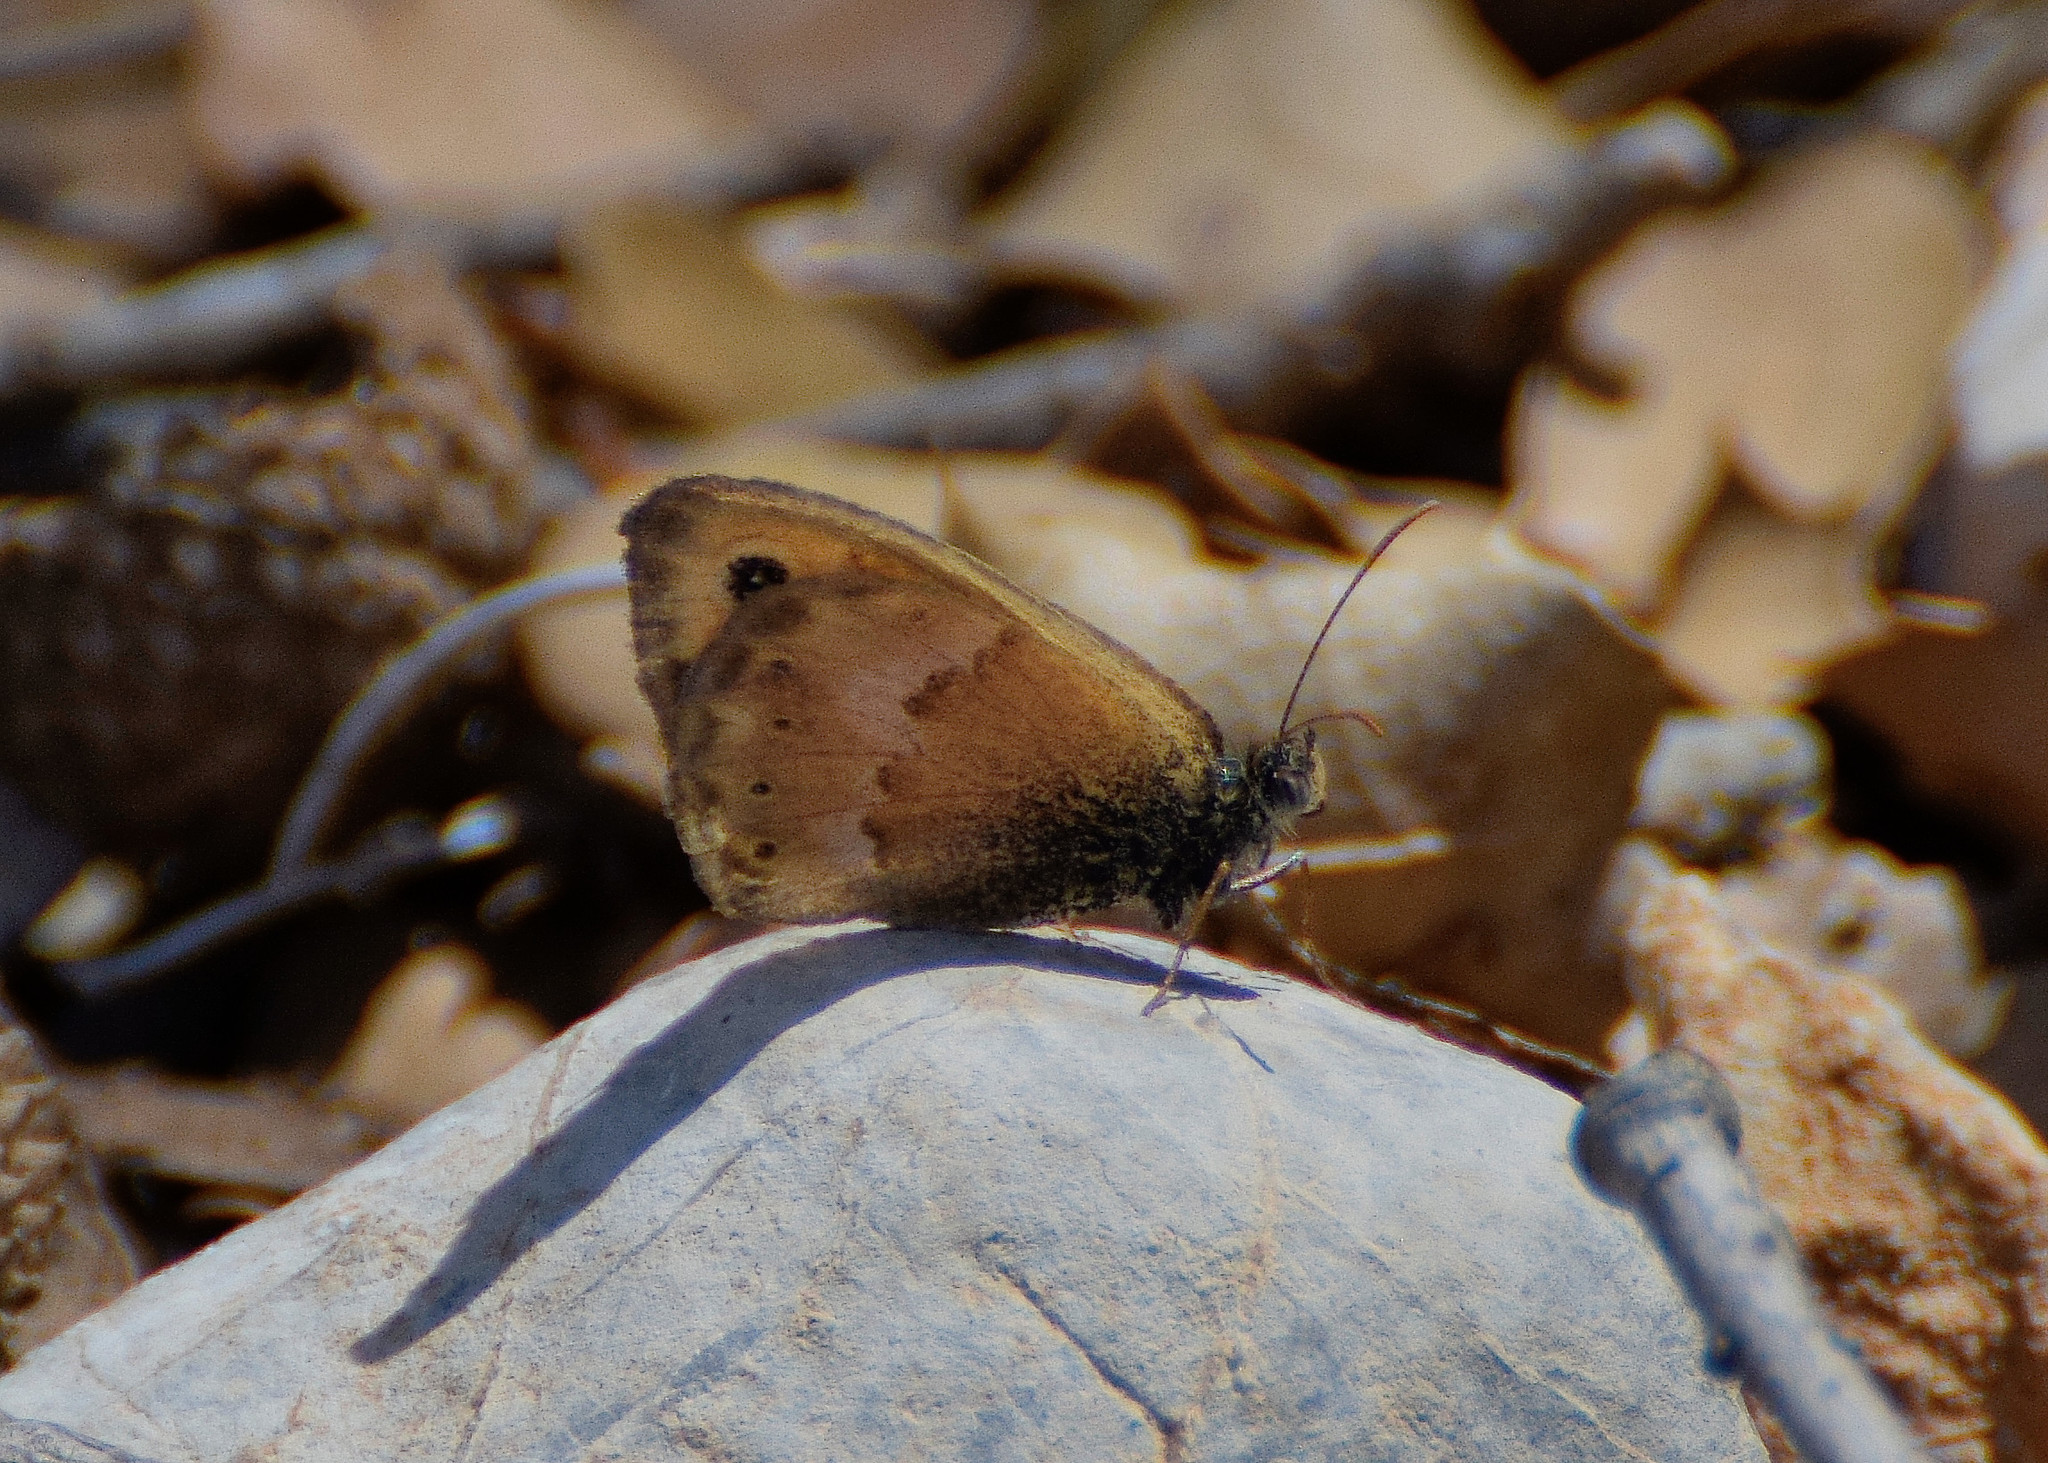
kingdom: Animalia
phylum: Arthropoda
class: Insecta
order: Lepidoptera
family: Nymphalidae
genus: Coenonympha
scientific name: Coenonympha thyrsis
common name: Cretan small heath
